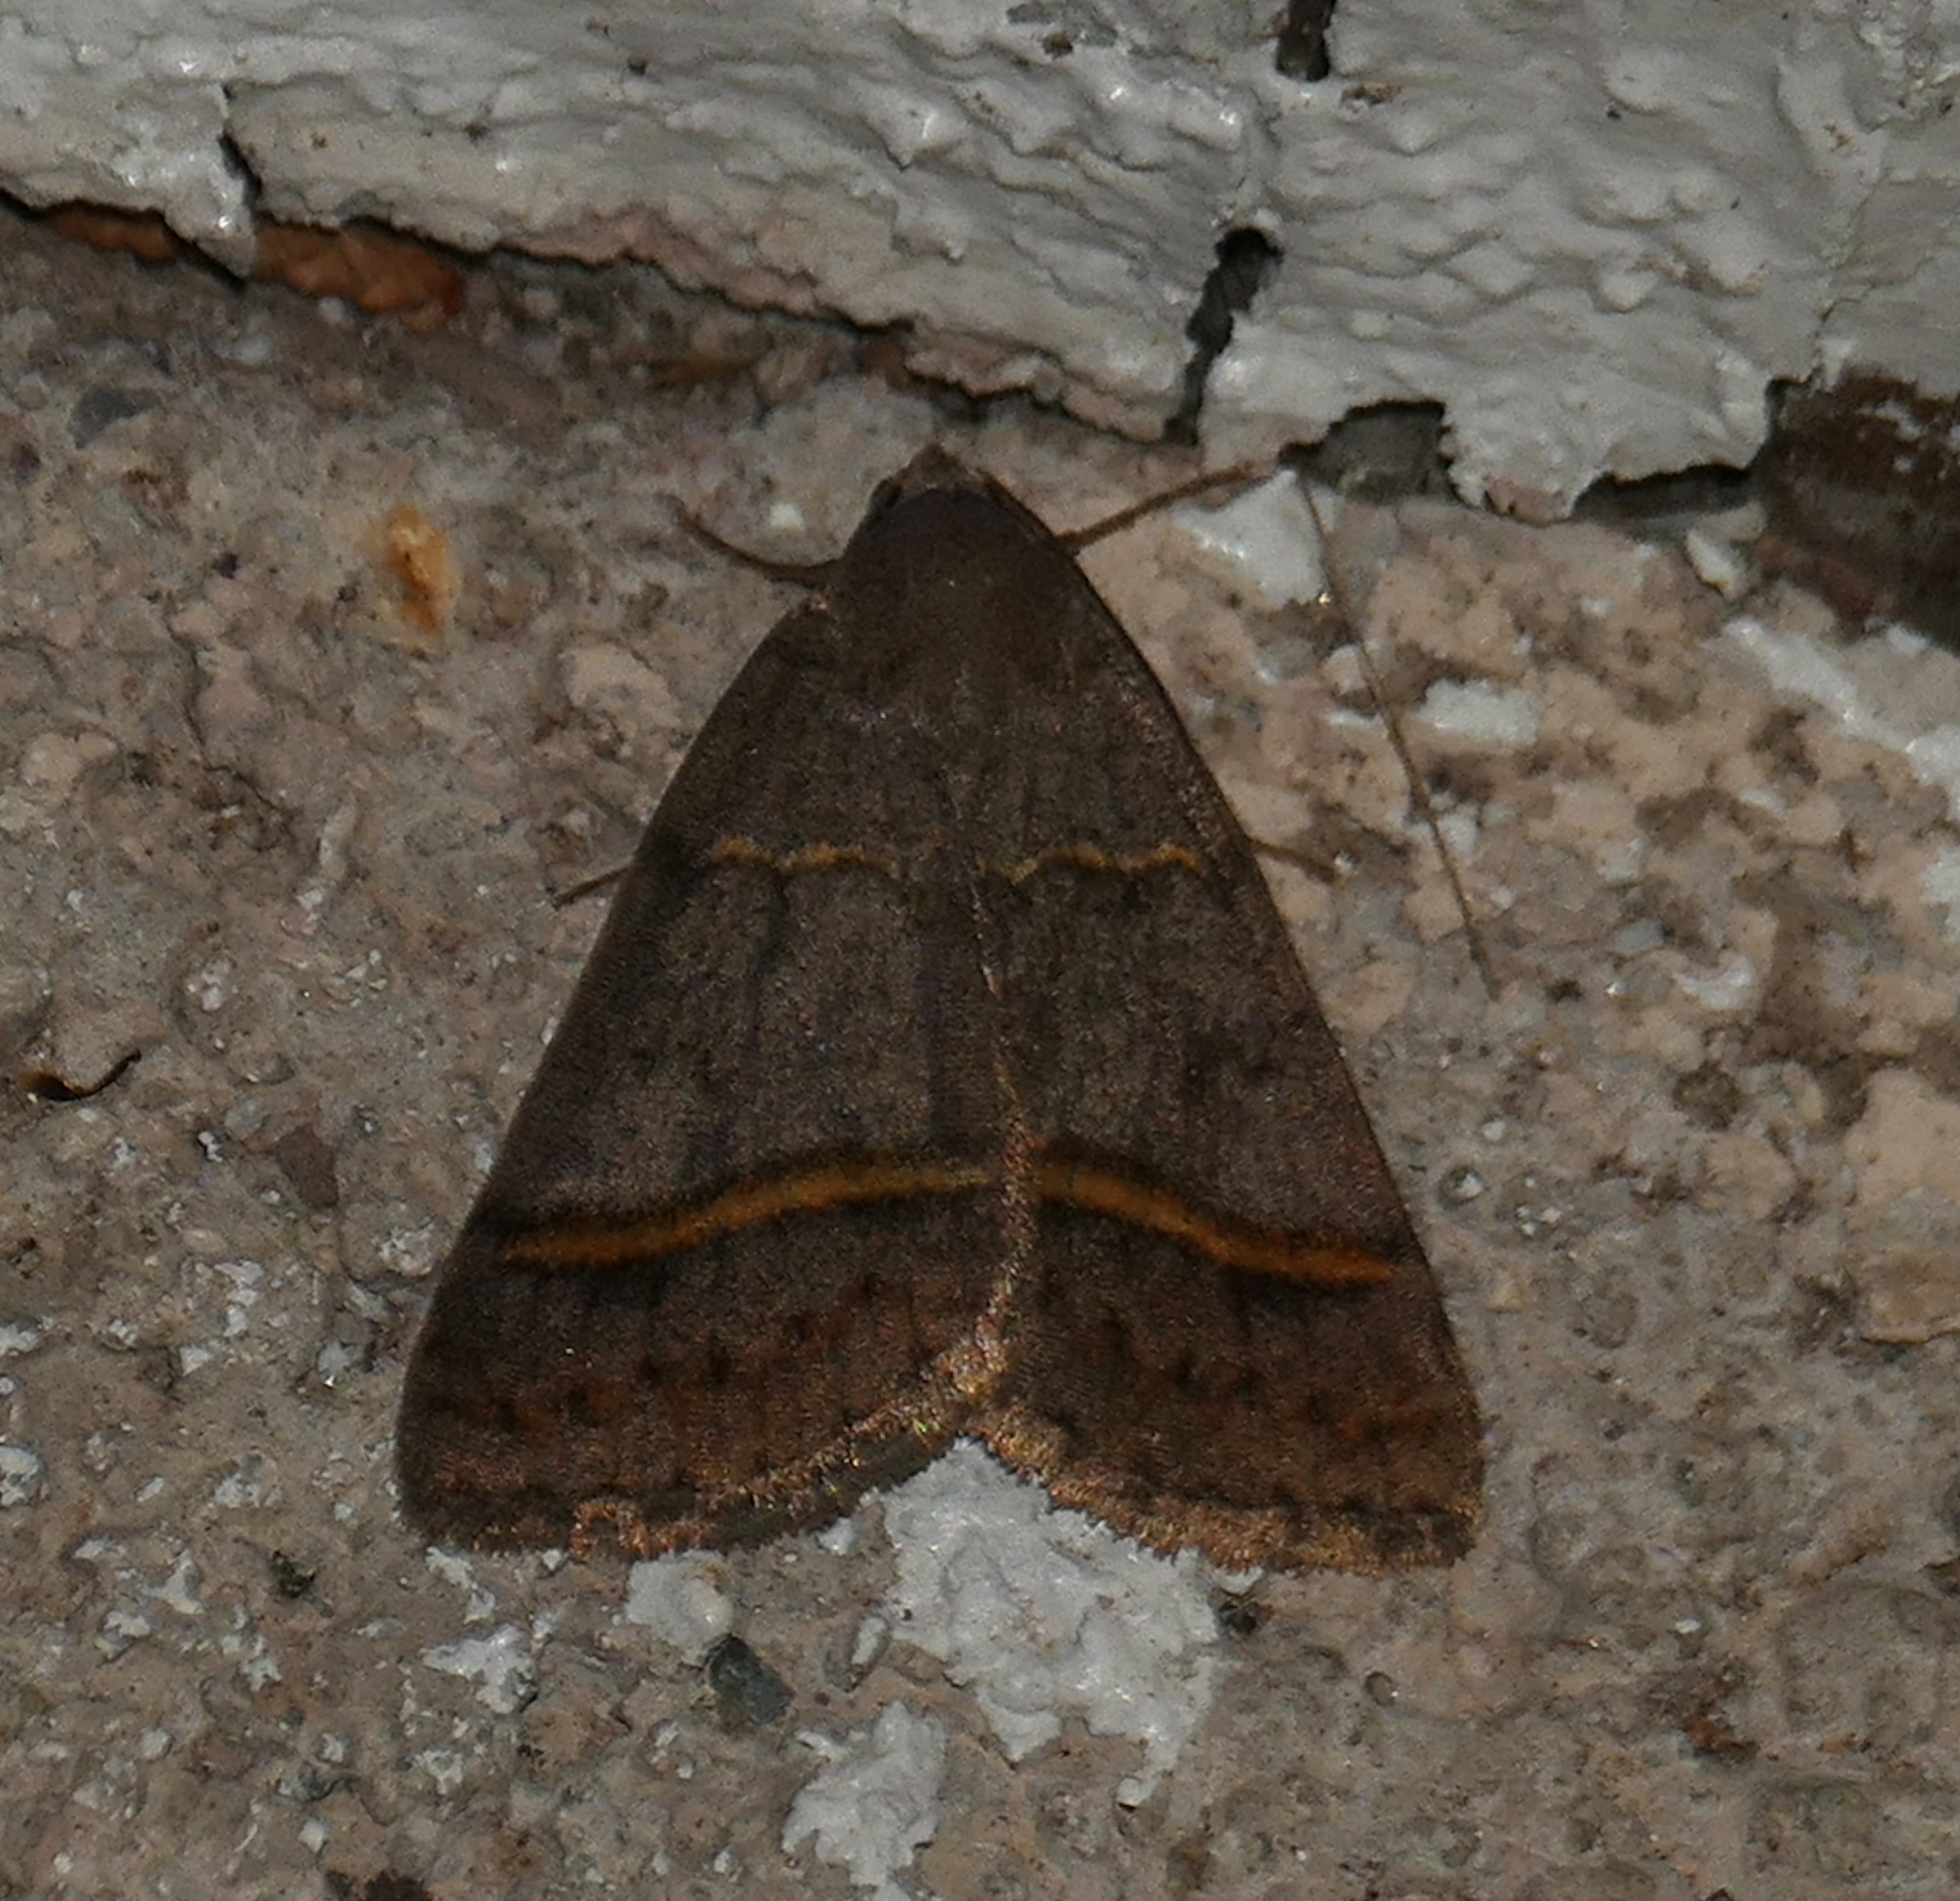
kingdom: Animalia
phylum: Arthropoda
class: Insecta
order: Lepidoptera
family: Erebidae
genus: Ptichodis
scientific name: Ptichodis bucetum
